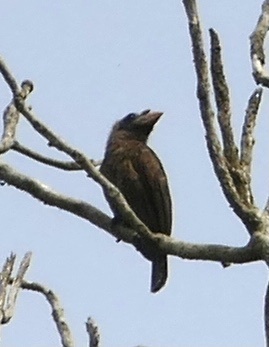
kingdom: Animalia
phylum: Chordata
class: Aves
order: Piciformes
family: Lybiidae
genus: Gymnobucco
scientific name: Gymnobucco peli
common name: Bristle-nosed barbet
